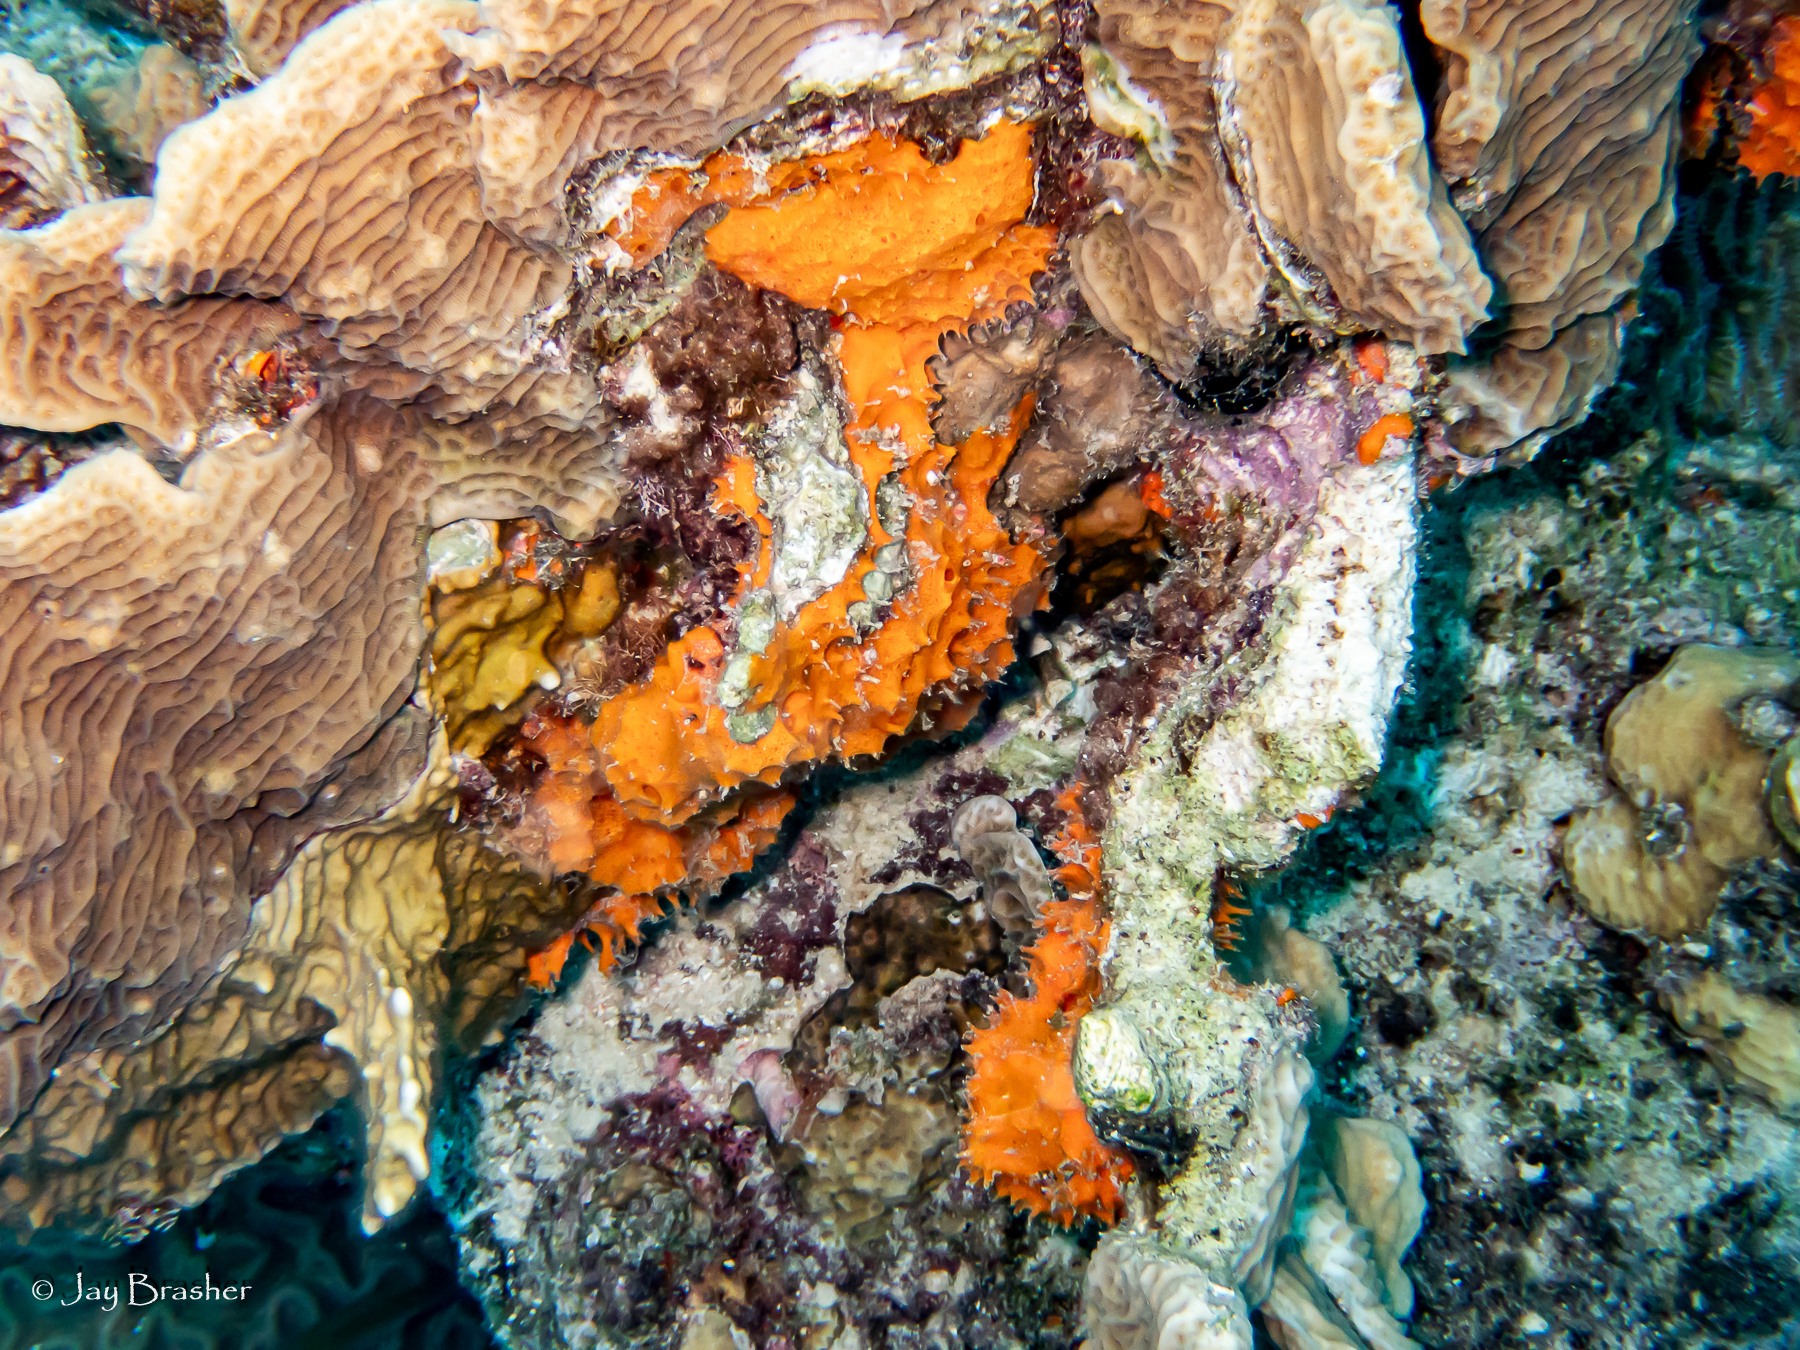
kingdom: Animalia
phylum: Porifera
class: Demospongiae
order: Scopalinida
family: Scopalinidae
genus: Scopalina
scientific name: Scopalina ruetzleri
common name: Orange lumpy encrusting sponge
